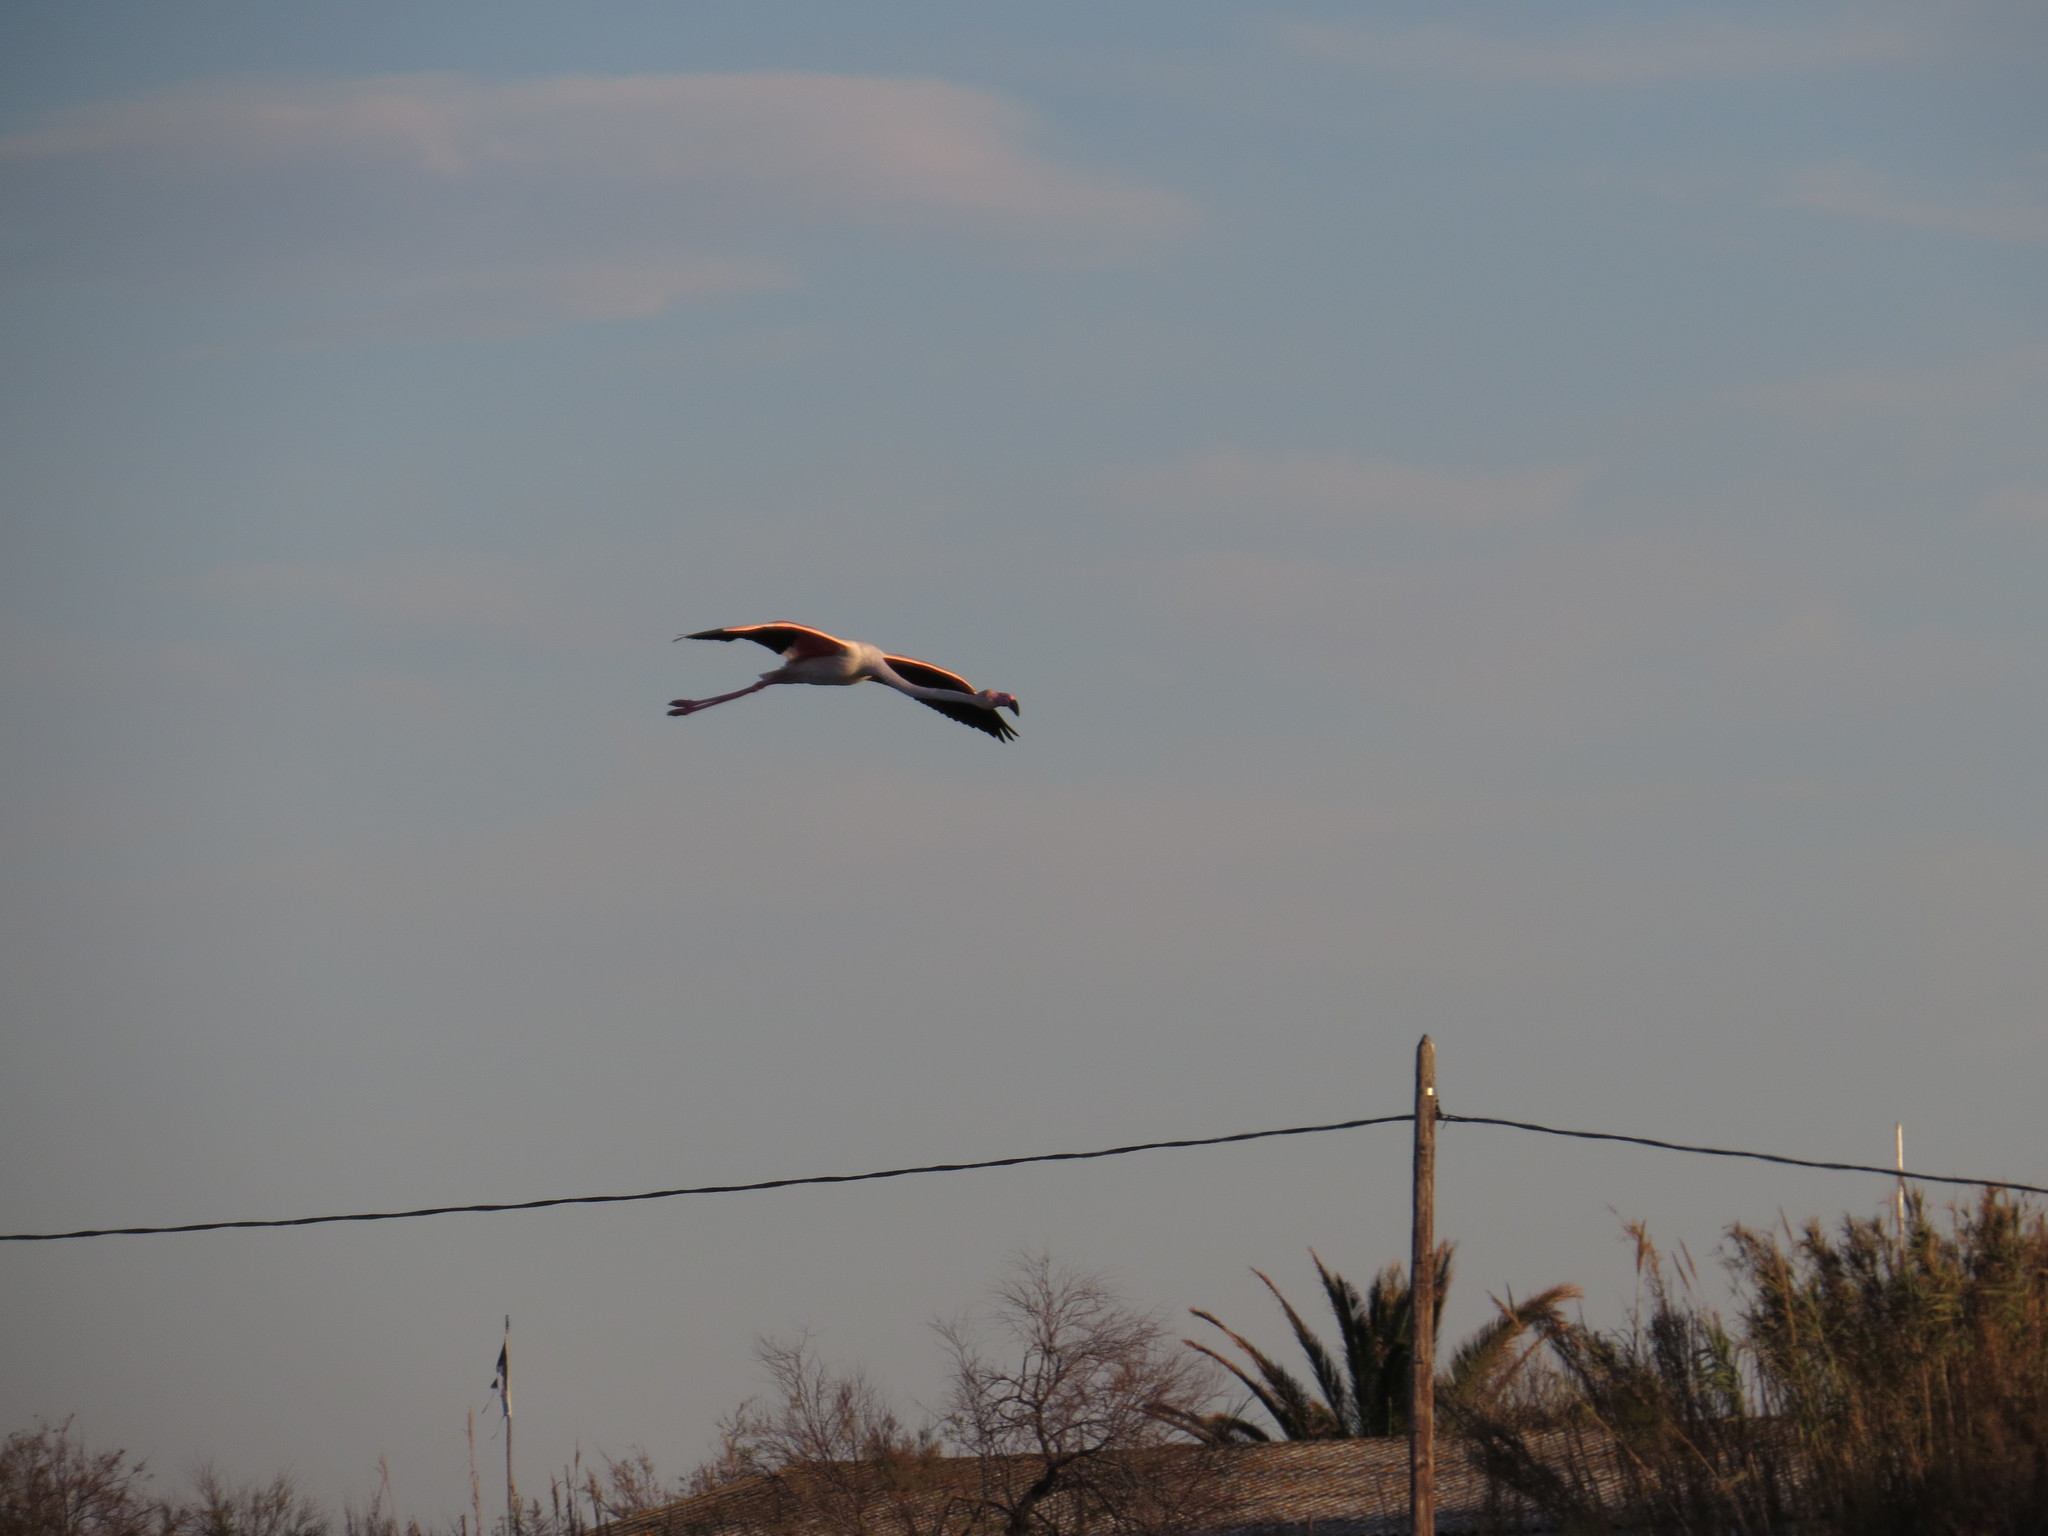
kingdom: Animalia
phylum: Chordata
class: Aves
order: Phoenicopteriformes
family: Phoenicopteridae
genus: Phoenicopterus
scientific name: Phoenicopterus roseus
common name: Greater flamingo
